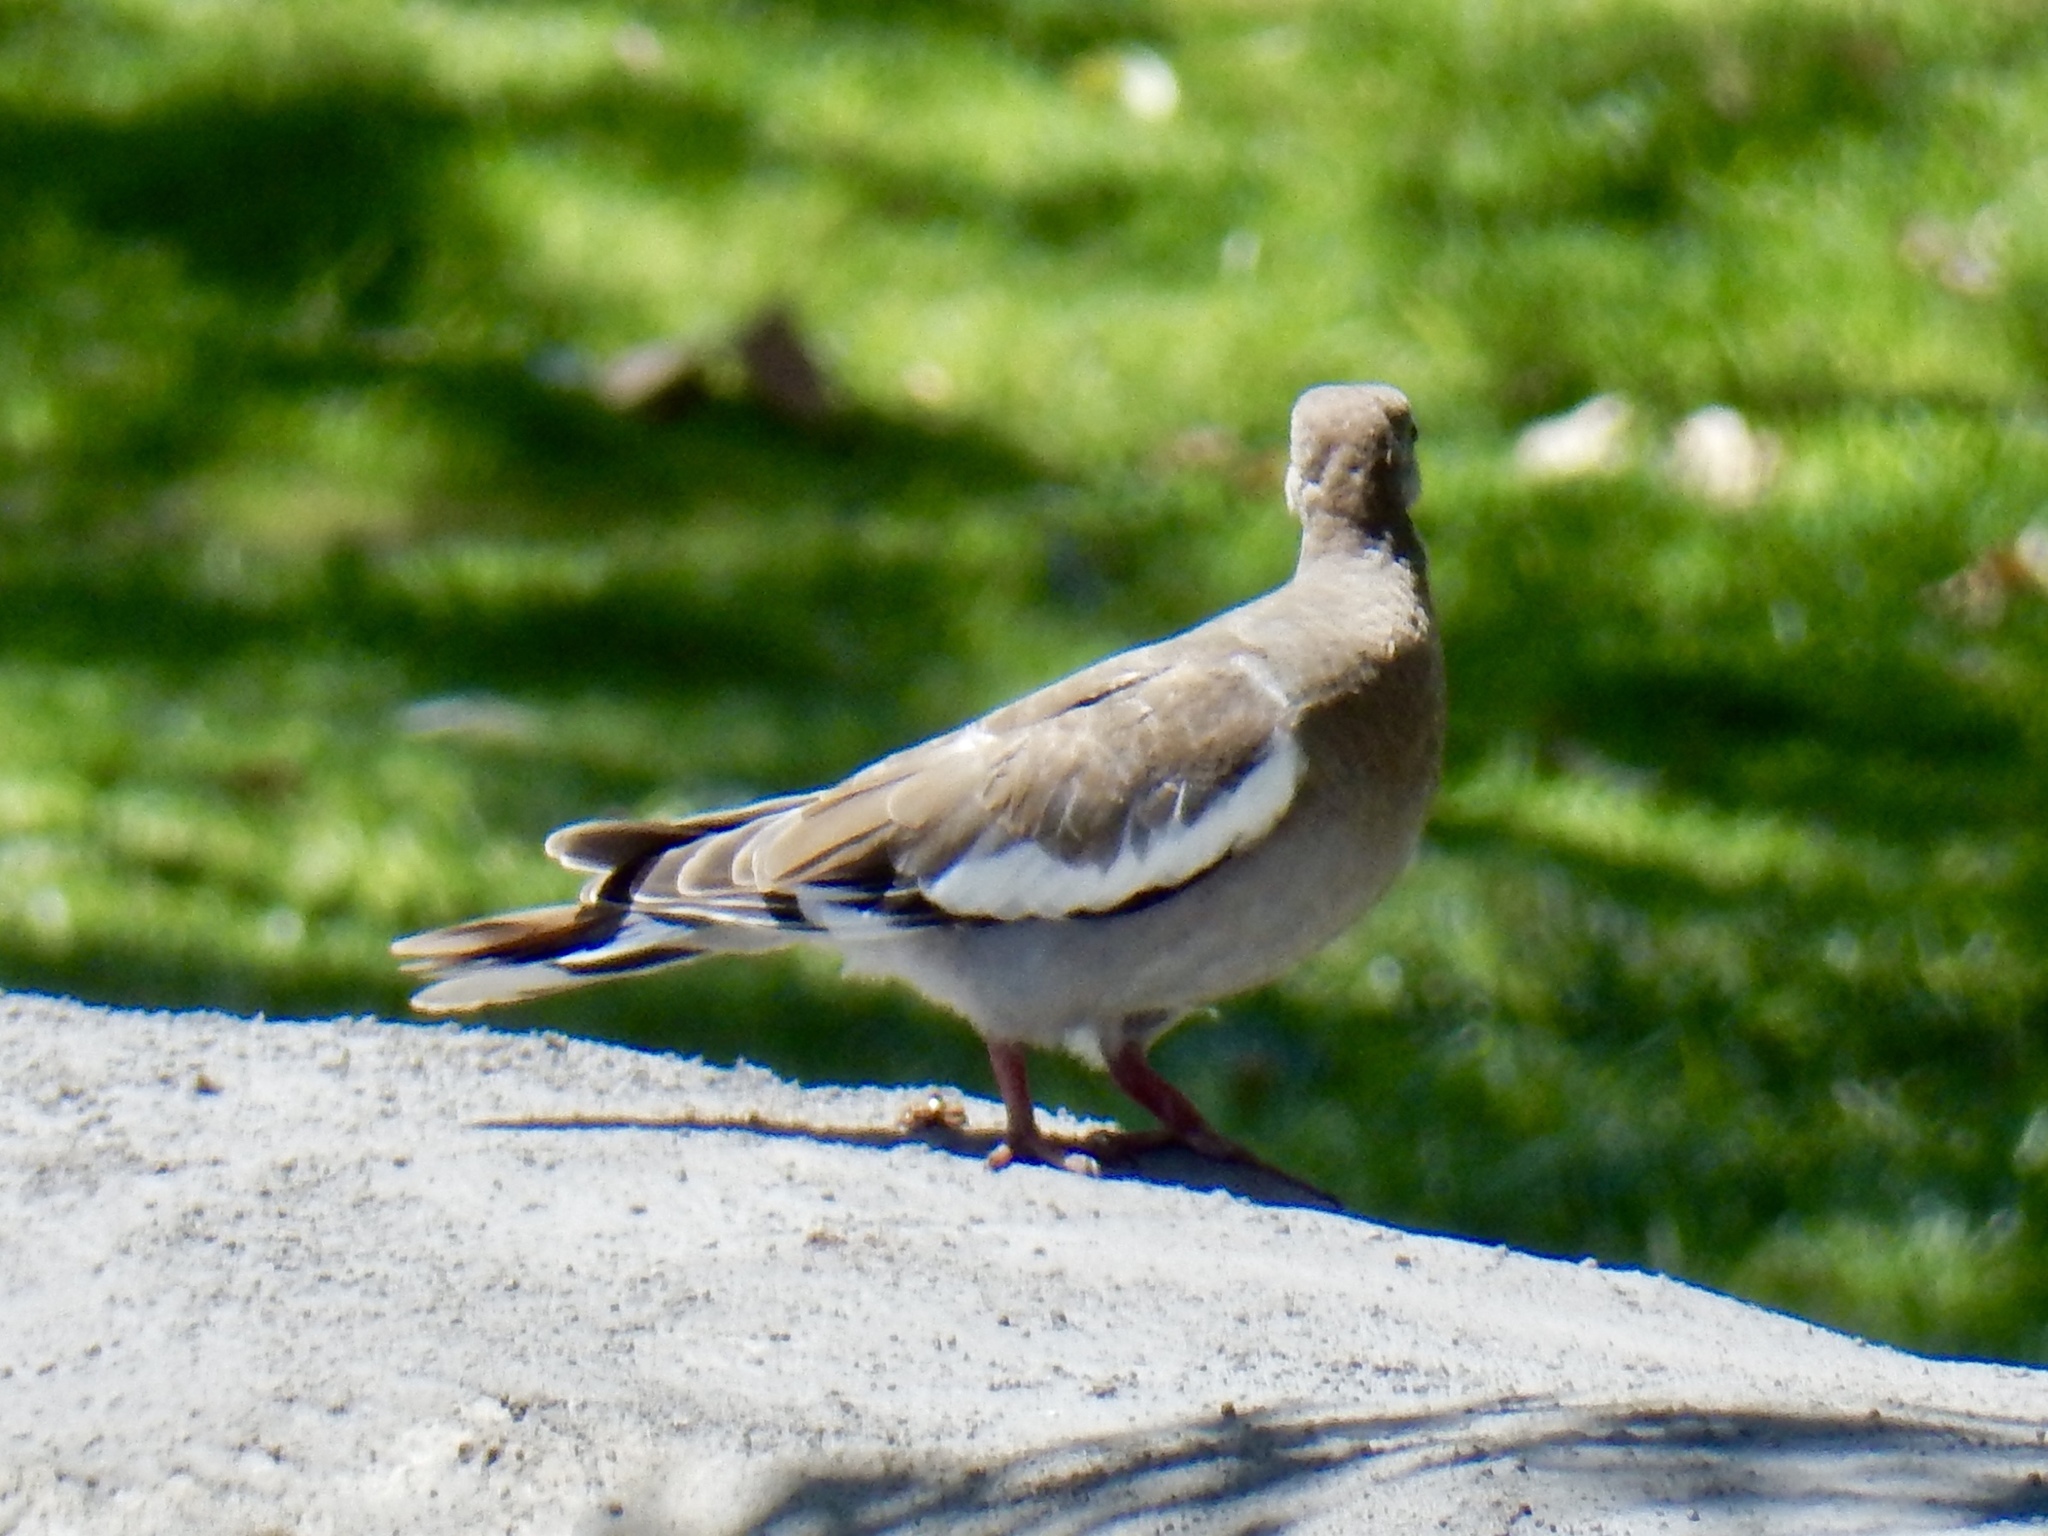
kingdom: Animalia
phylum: Chordata
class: Aves
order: Columbiformes
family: Columbidae
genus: Zenaida
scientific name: Zenaida asiatica
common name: White-winged dove
